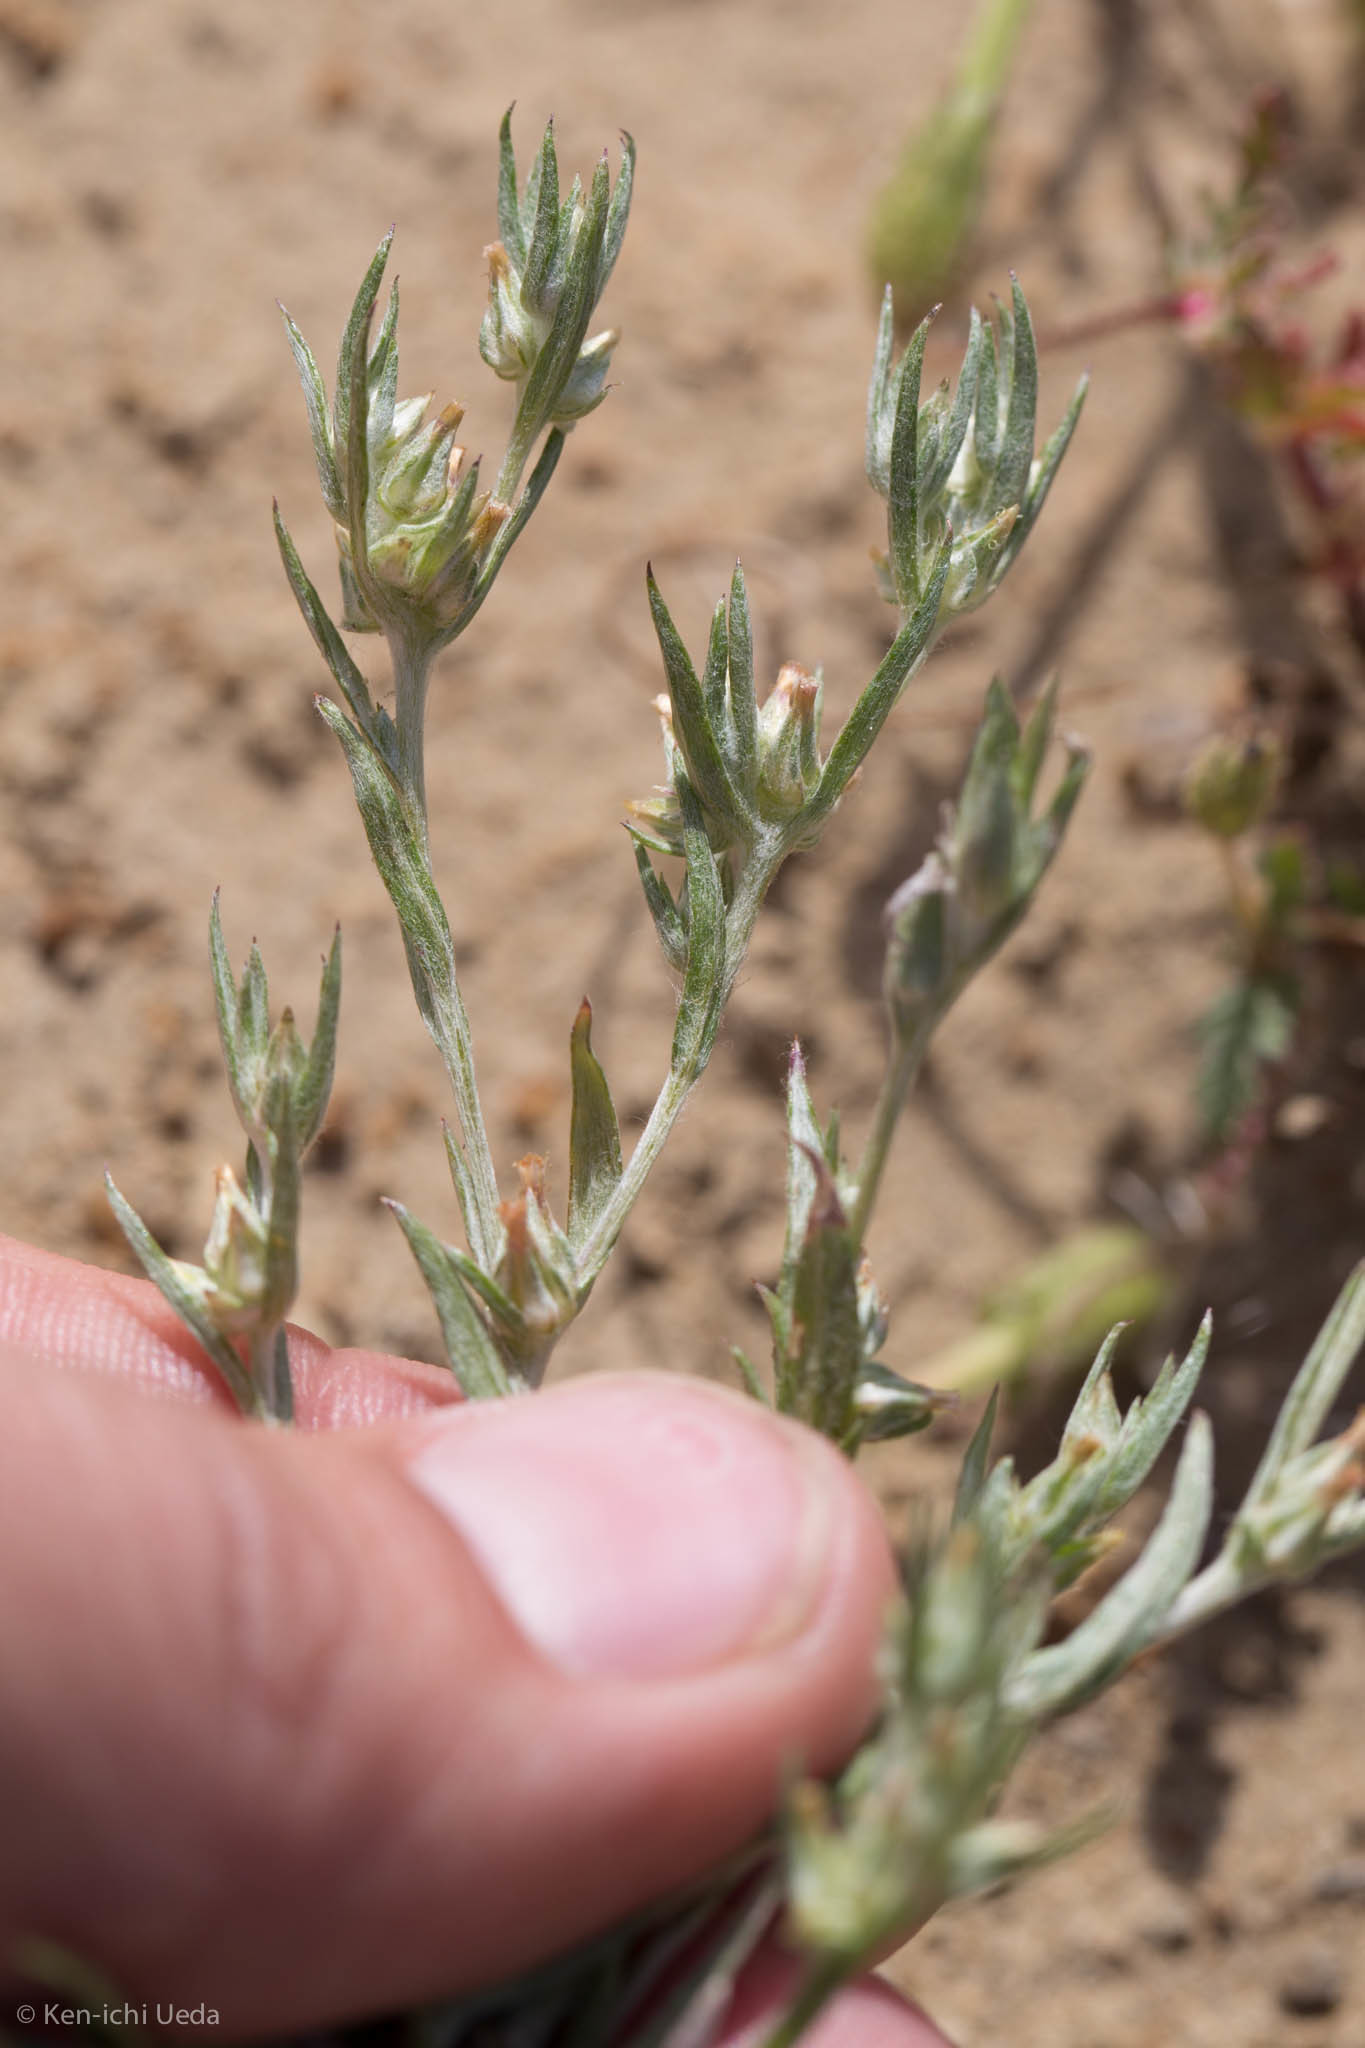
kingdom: Plantae
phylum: Tracheophyta
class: Magnoliopsida
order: Asterales
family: Asteraceae
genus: Logfia
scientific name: Logfia gallica
